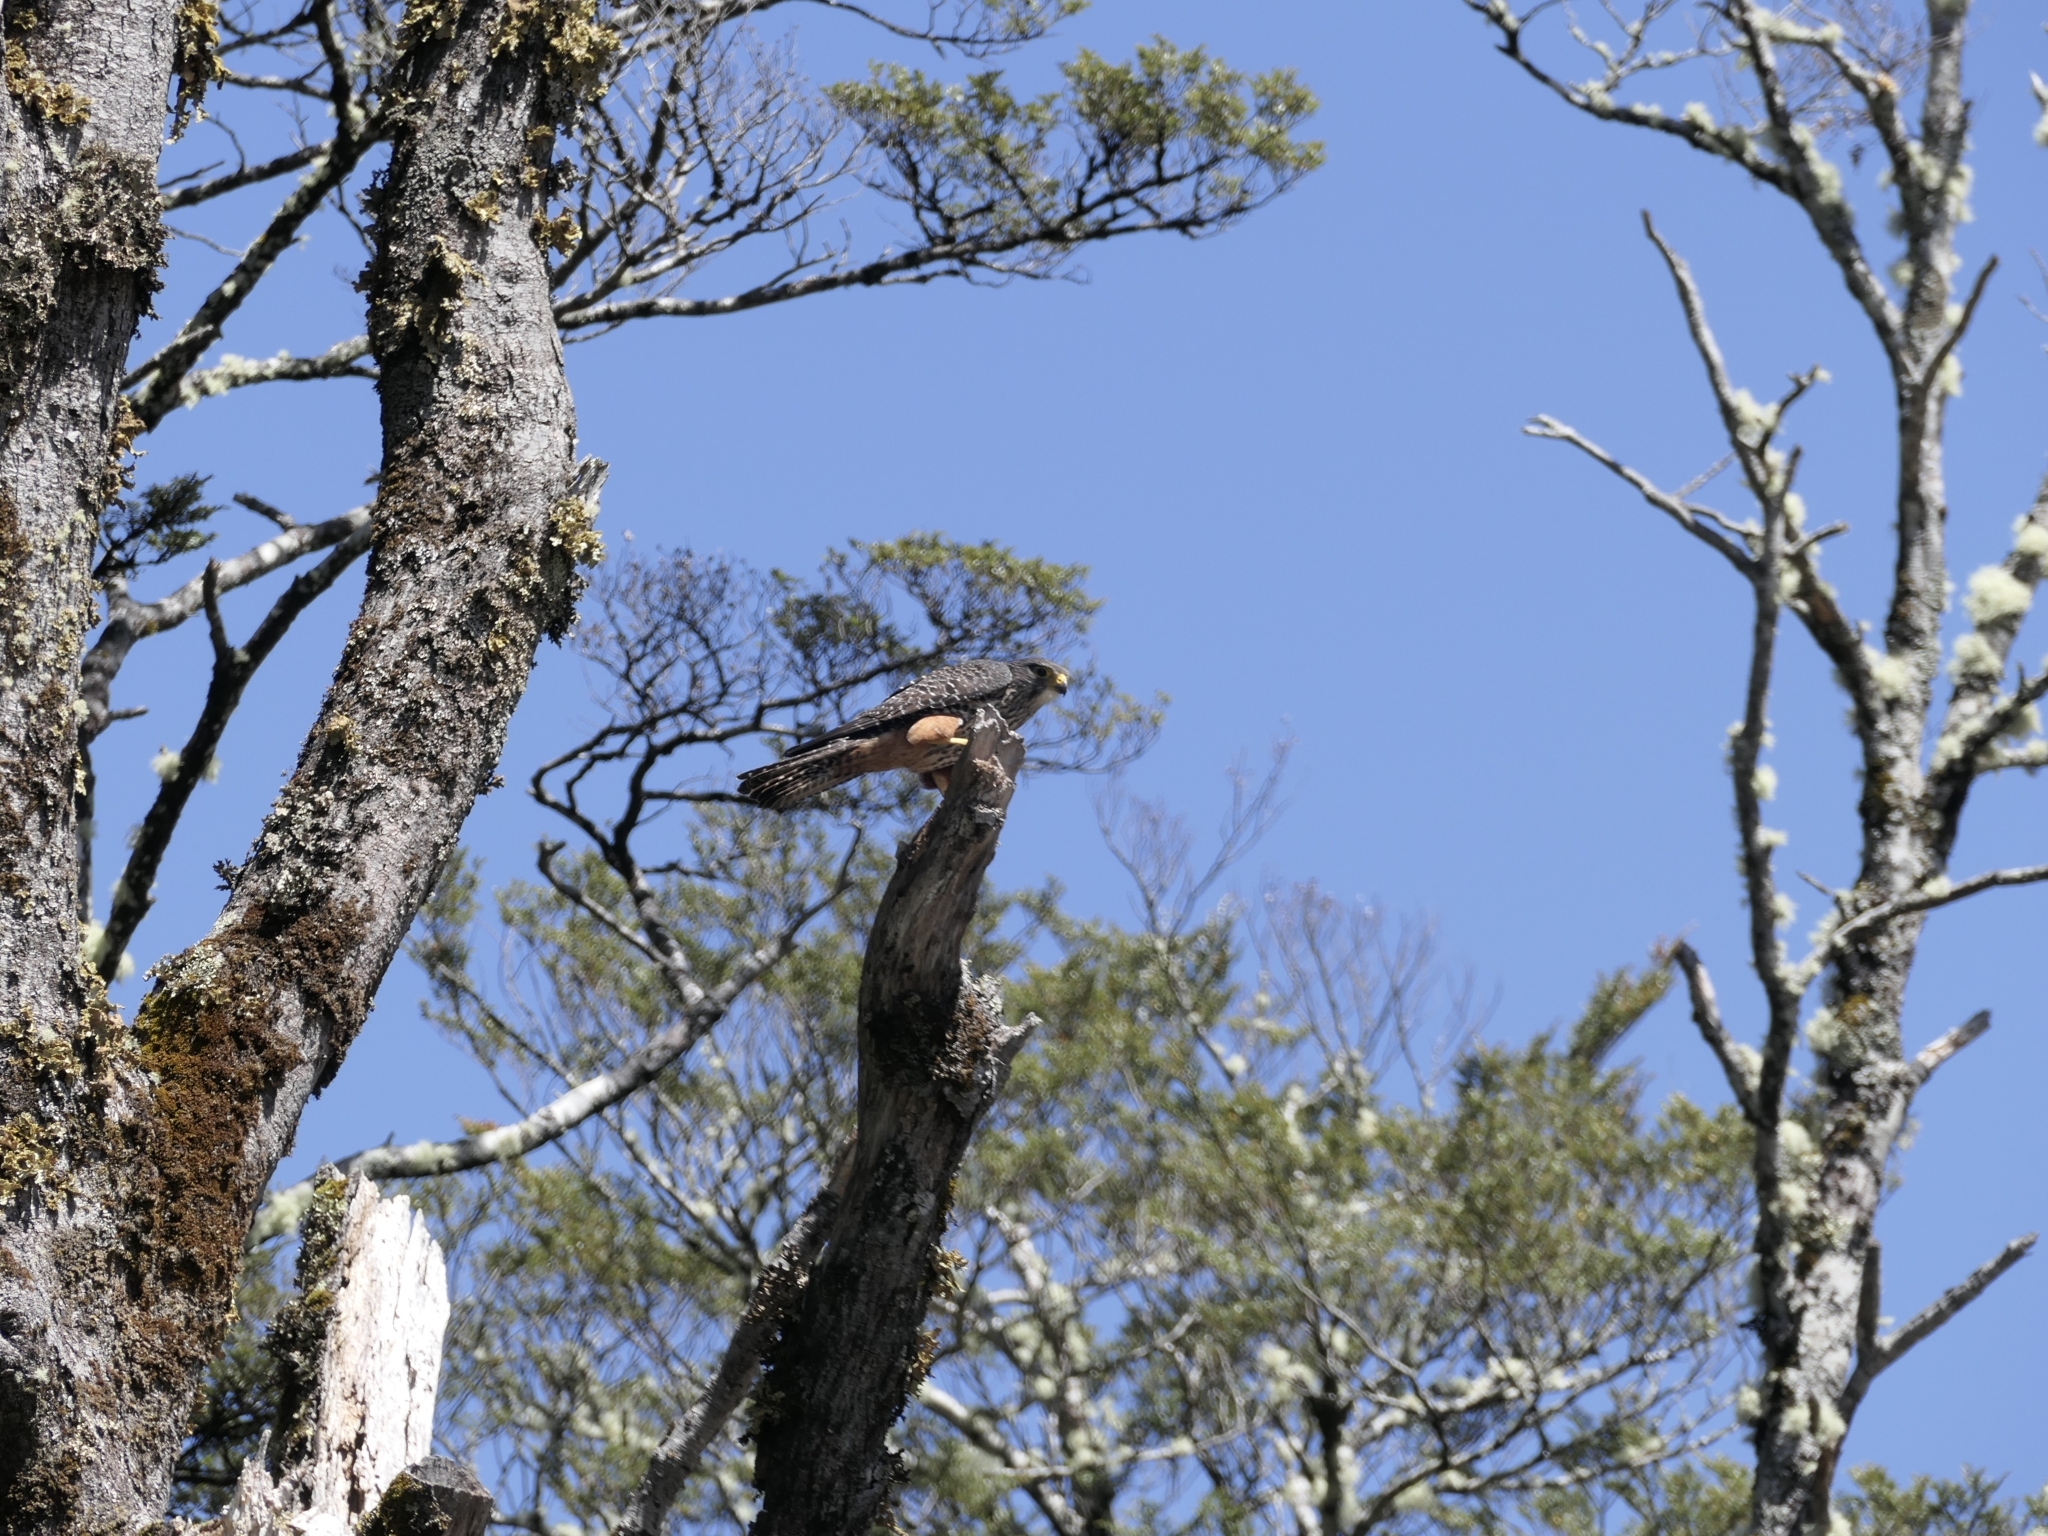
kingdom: Animalia
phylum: Chordata
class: Aves
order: Falconiformes
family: Falconidae
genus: Falco
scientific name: Falco novaeseelandiae
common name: New zealand falcon
